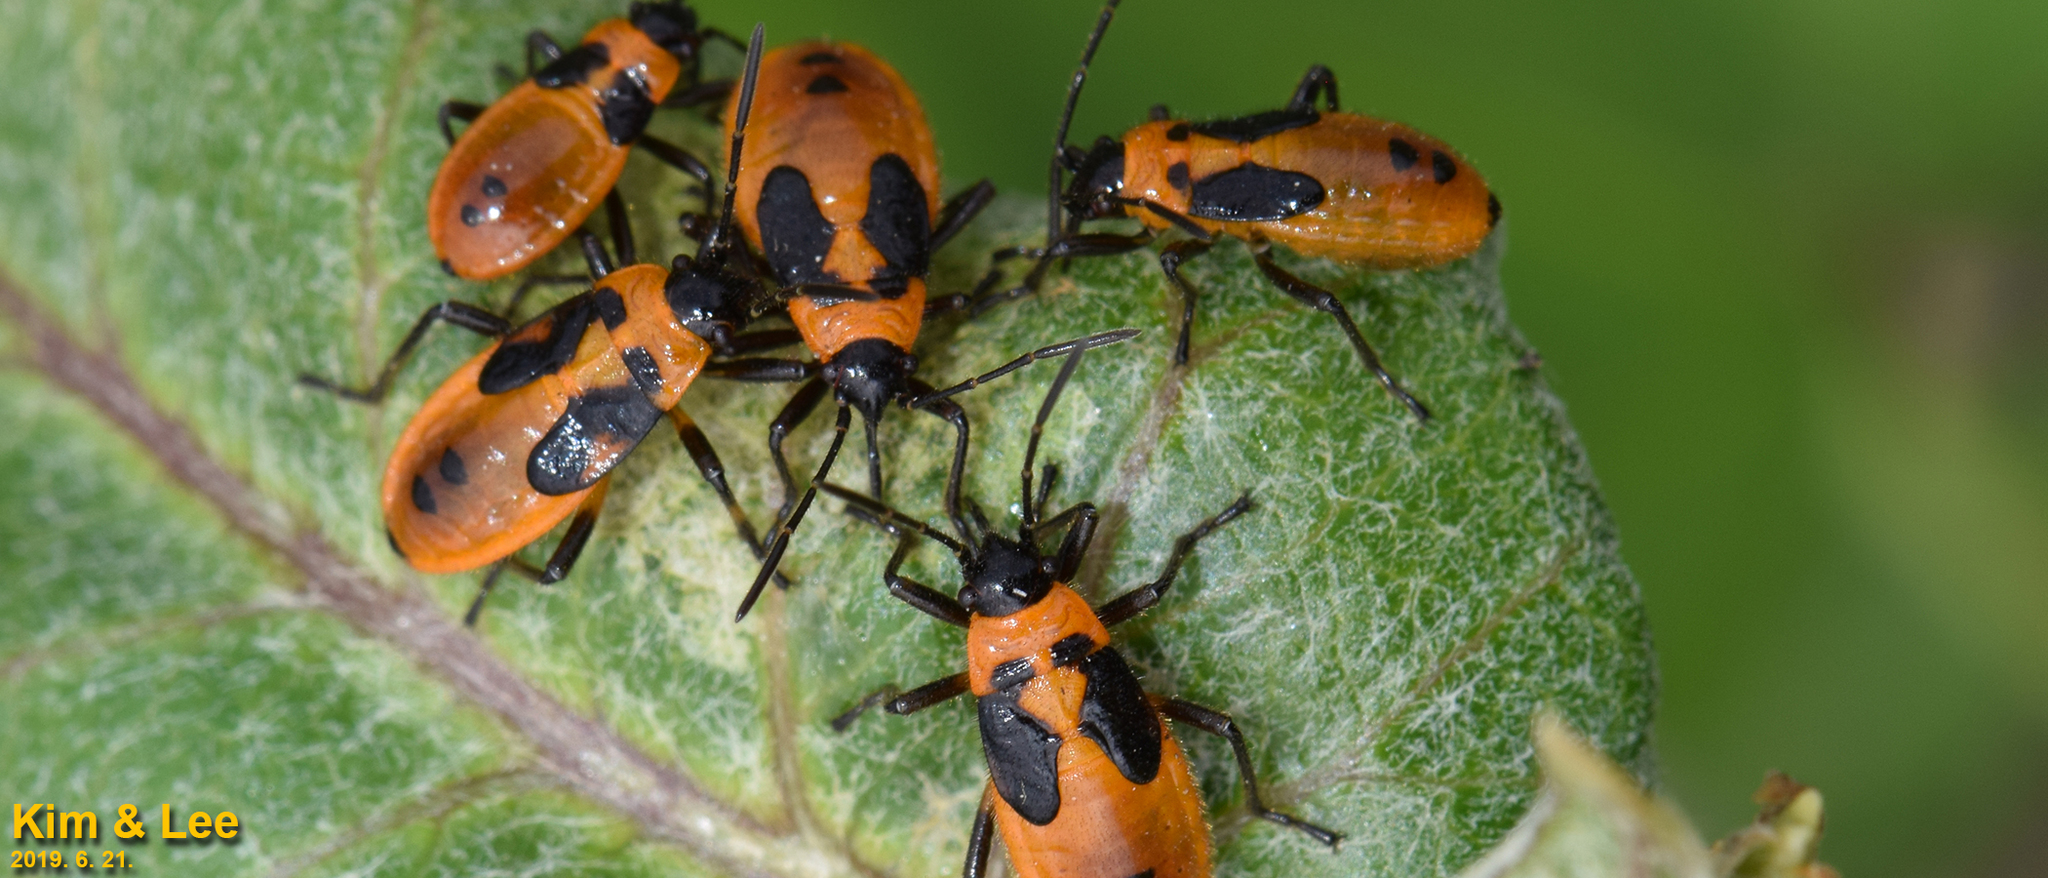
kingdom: Animalia
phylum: Arthropoda
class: Insecta
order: Hemiptera
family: Lygaeidae
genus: Tropidothorax
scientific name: Tropidothorax cruciger
